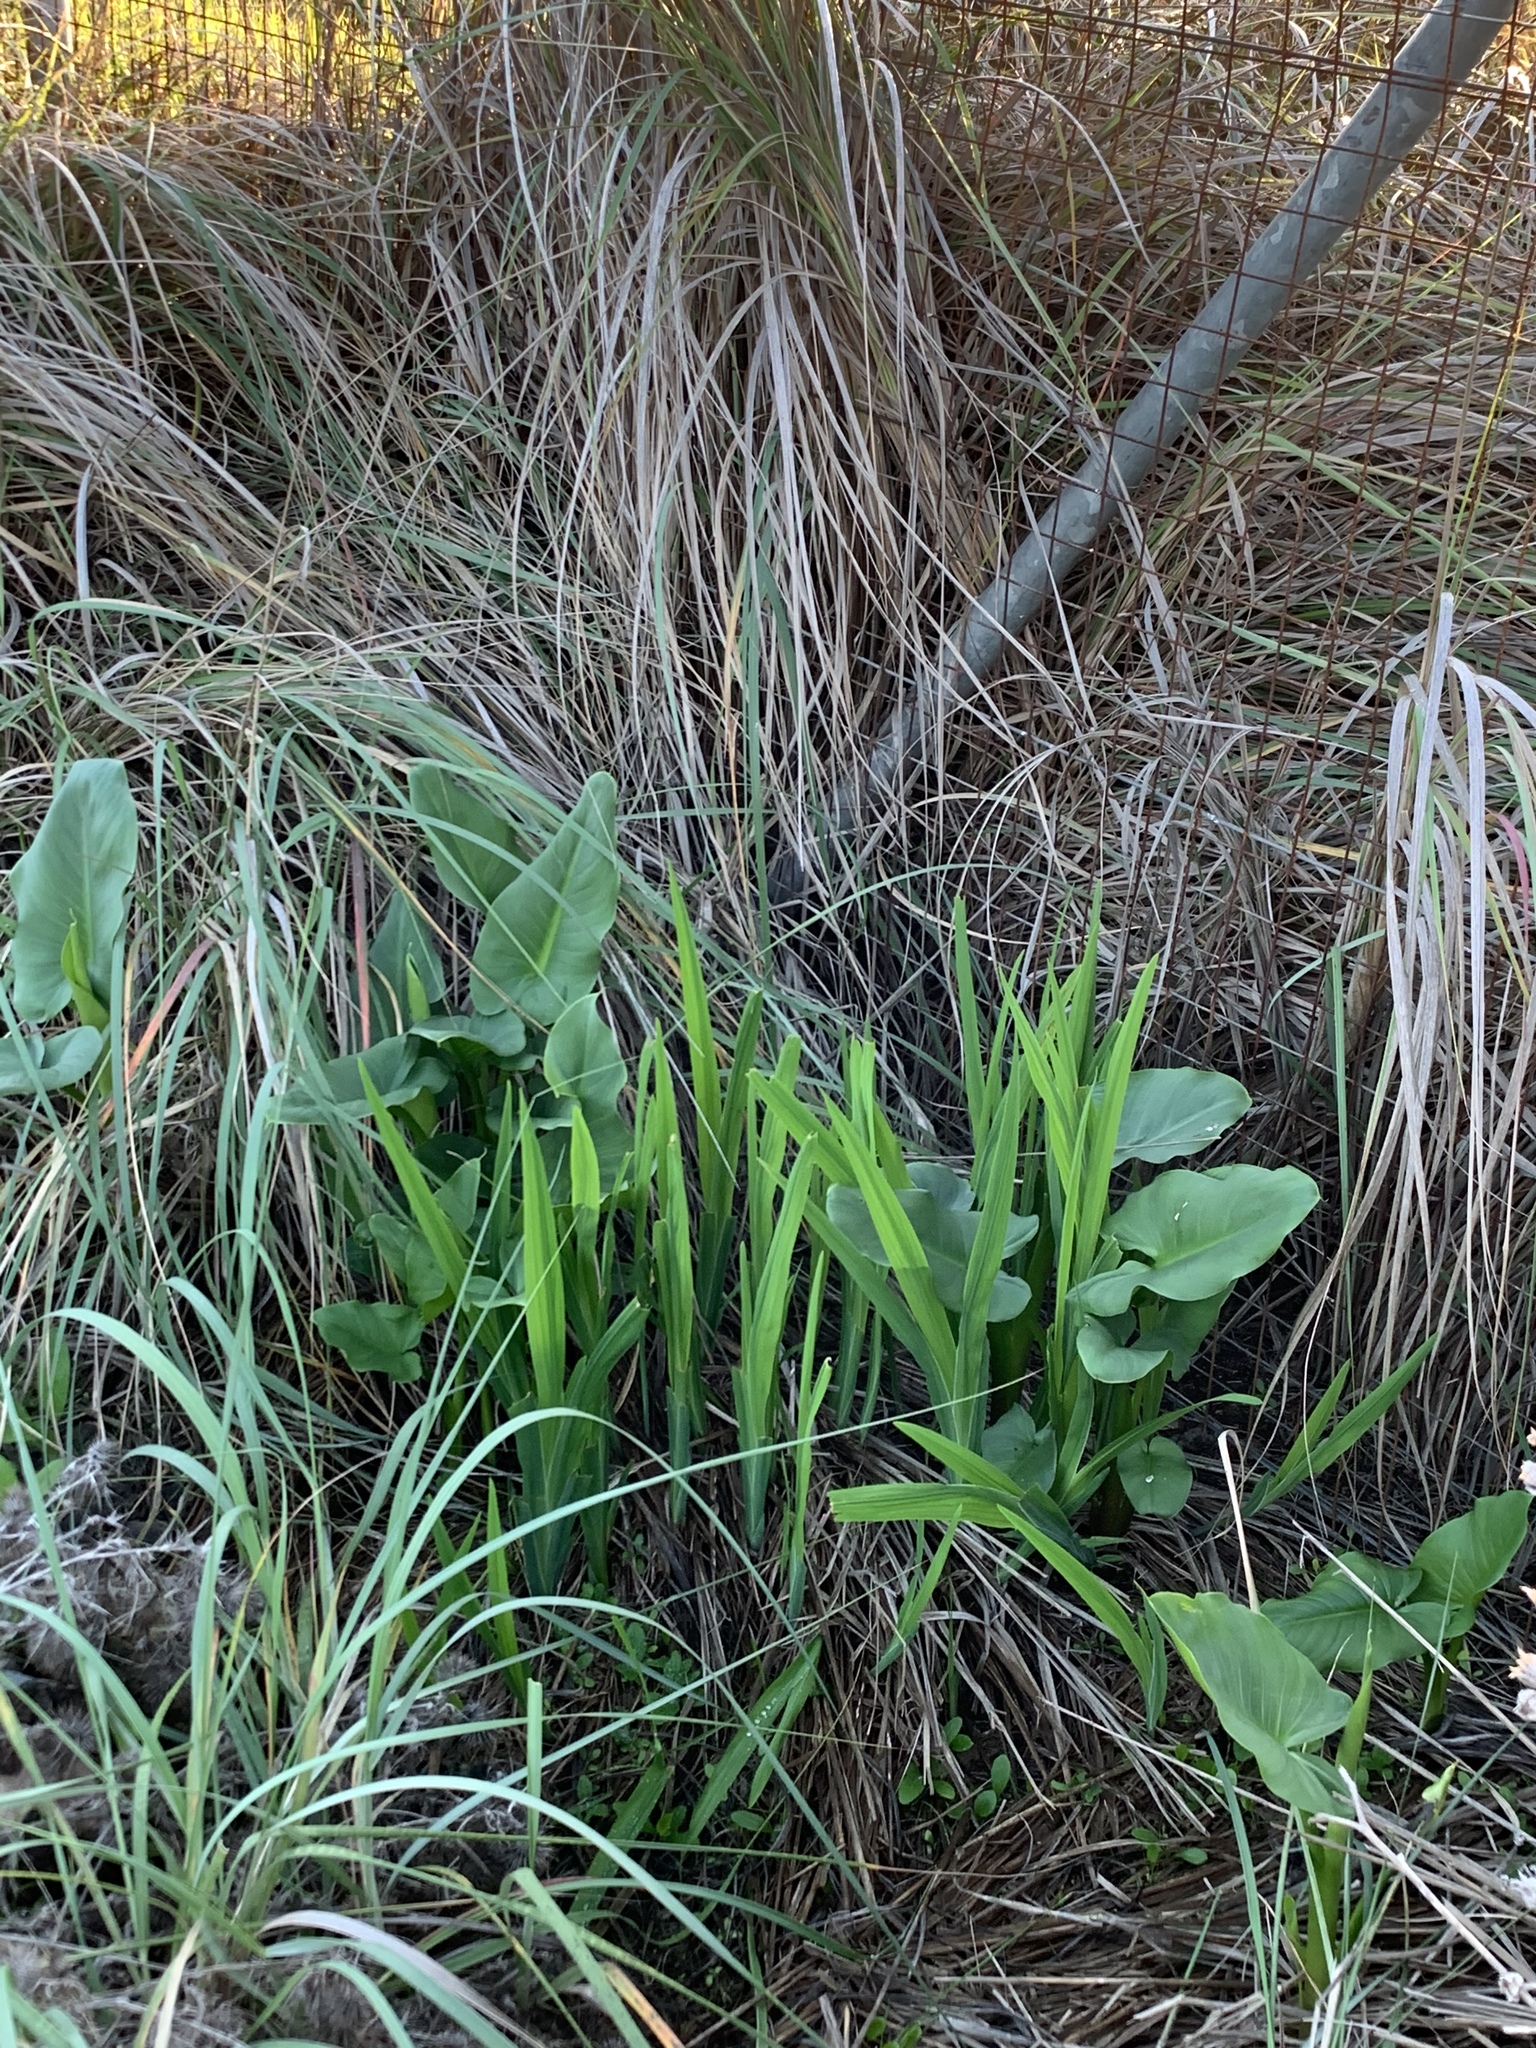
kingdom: Plantae
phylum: Tracheophyta
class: Liliopsida
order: Alismatales
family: Araceae
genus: Zantedeschia
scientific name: Zantedeschia aethiopica
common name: Altar-lily
